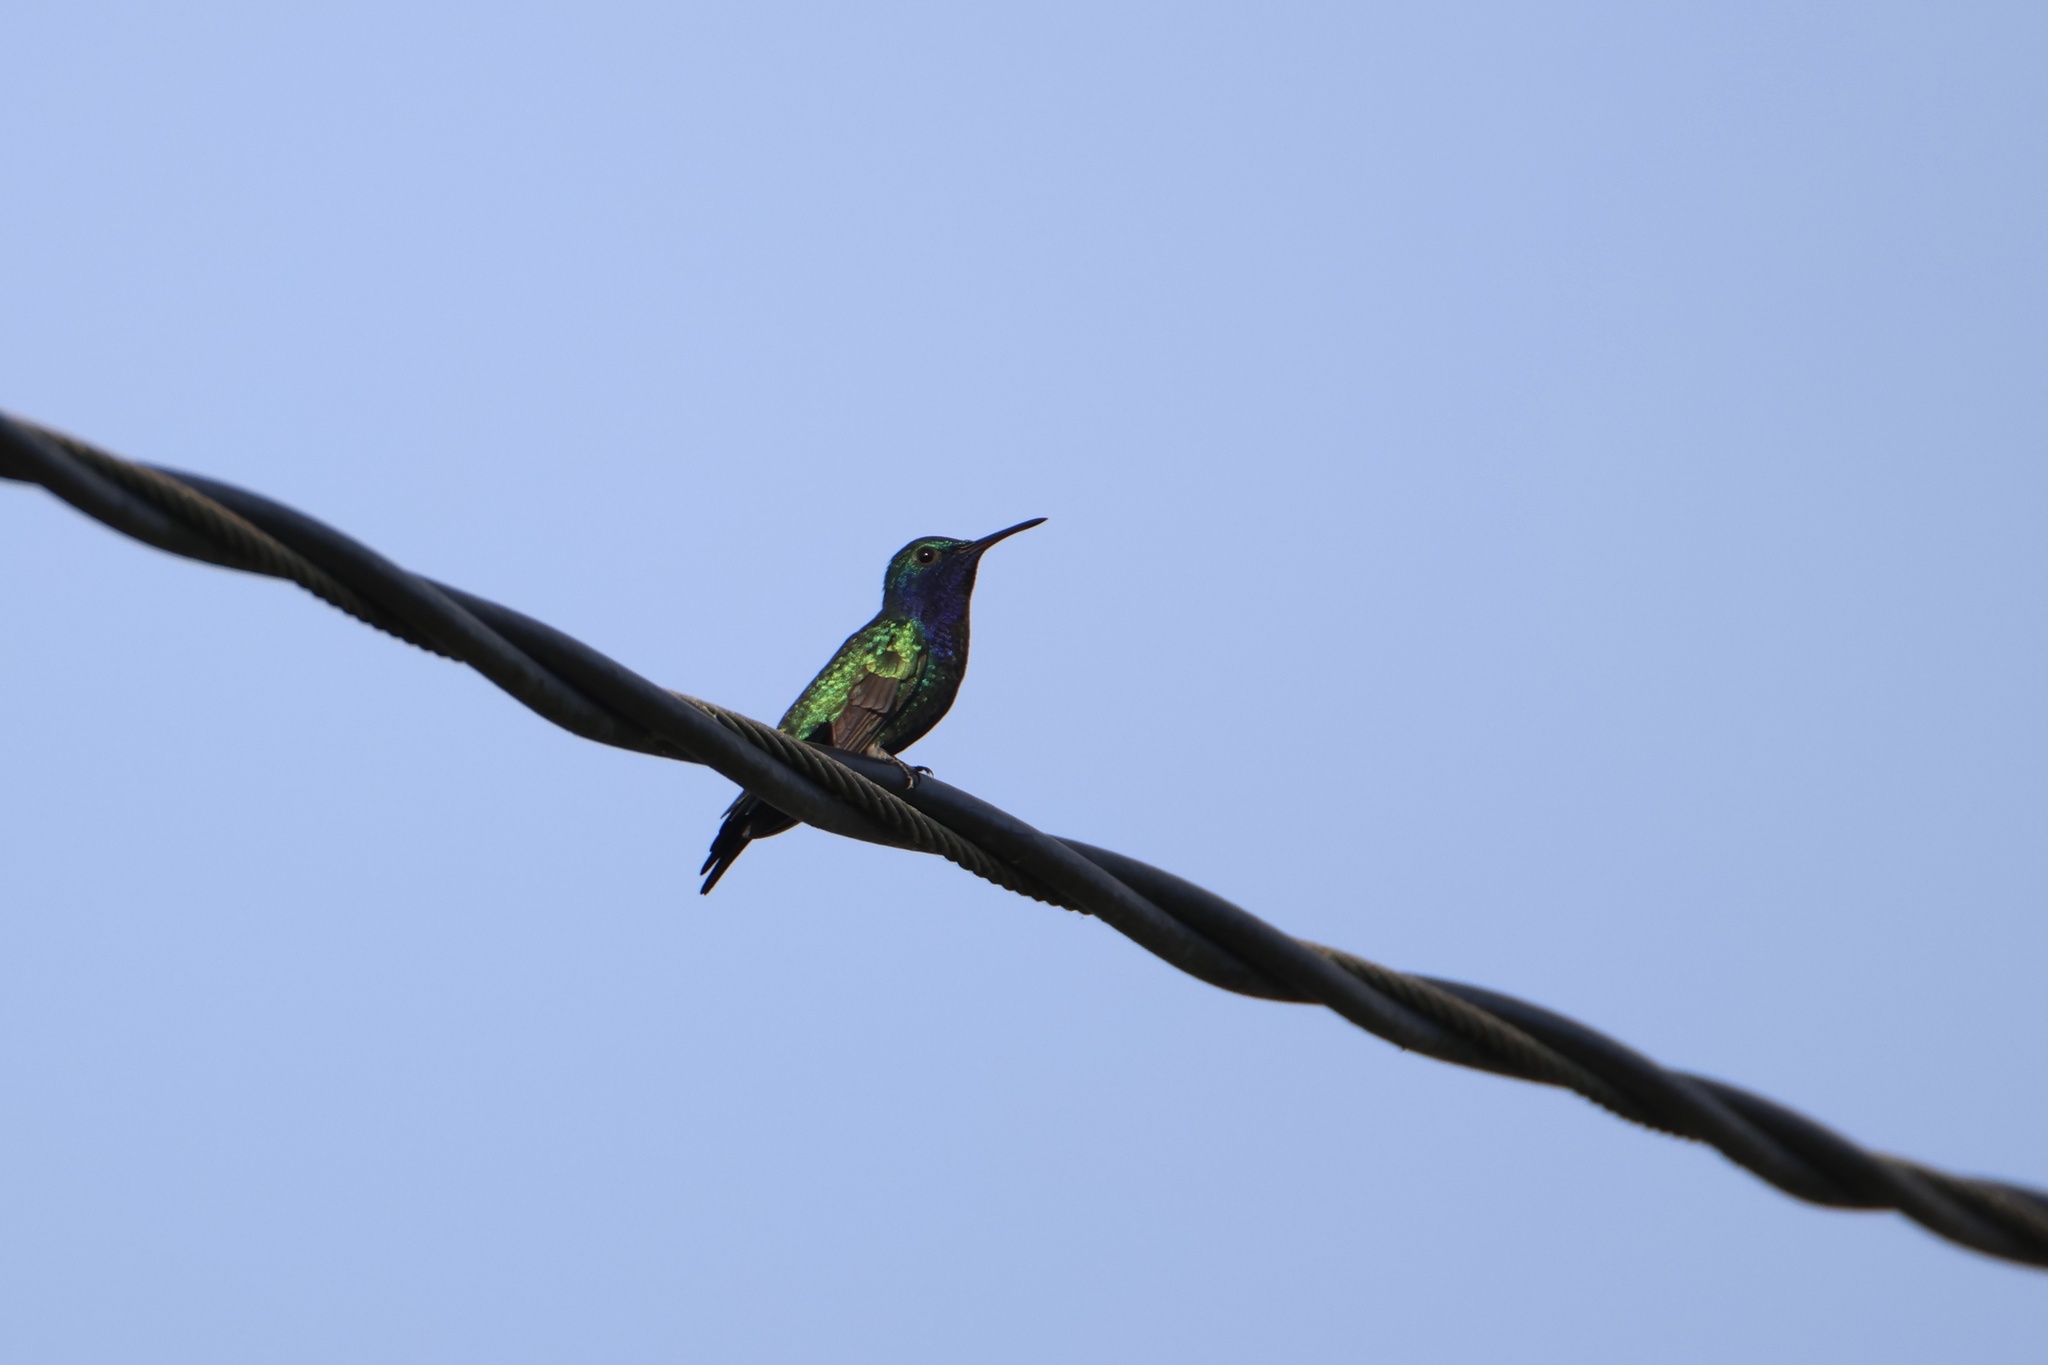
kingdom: Animalia
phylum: Chordata
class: Aves
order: Apodiformes
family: Trochilidae
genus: Chrysuronia
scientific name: Chrysuronia coeruleogularis
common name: Sapphire-throated hummingbird
